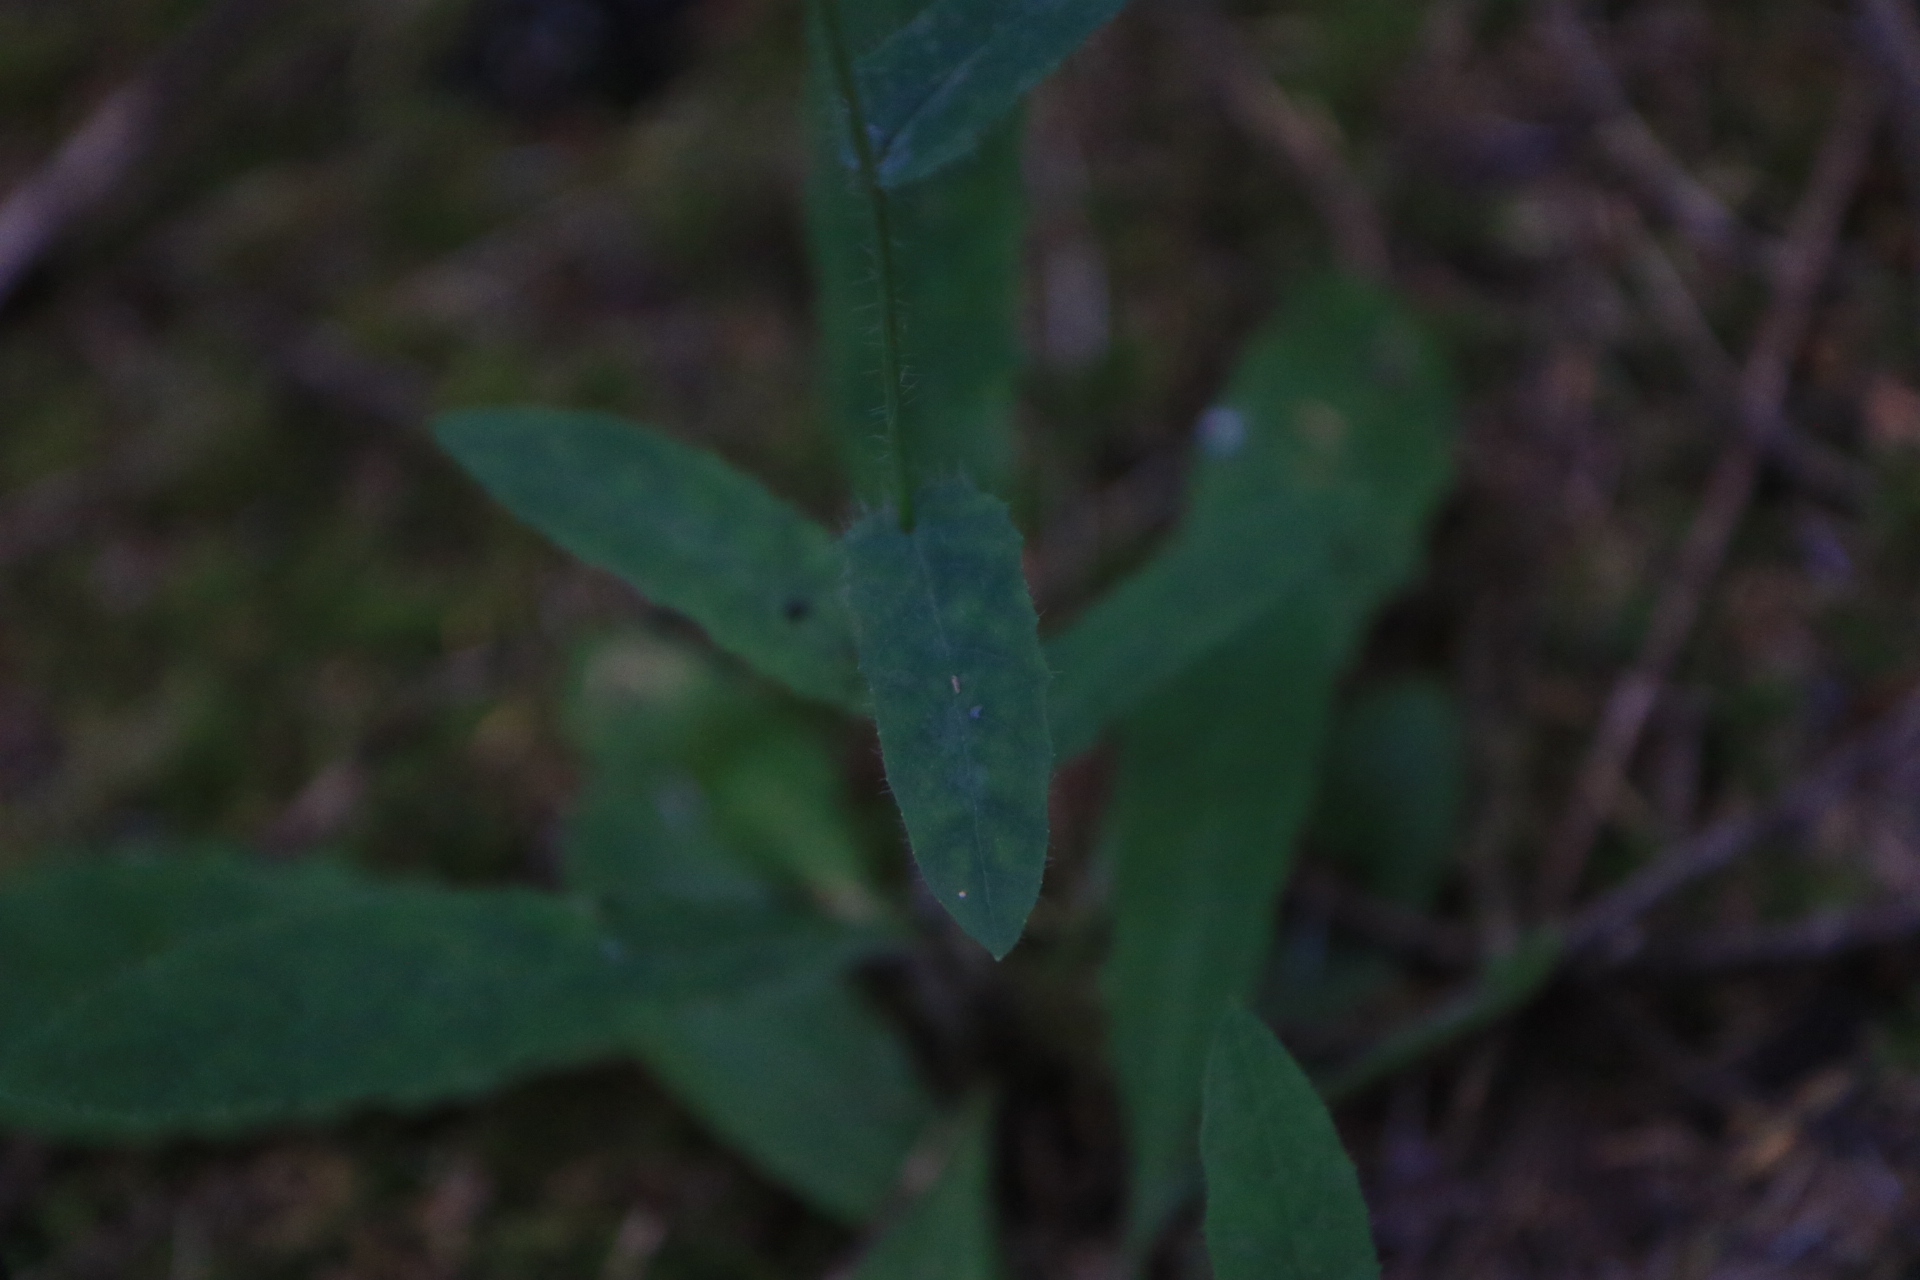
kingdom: Plantae
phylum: Tracheophyta
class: Magnoliopsida
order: Asterales
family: Asteraceae
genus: Hieracium
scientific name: Hieracium albiflorum
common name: White hawkweed
